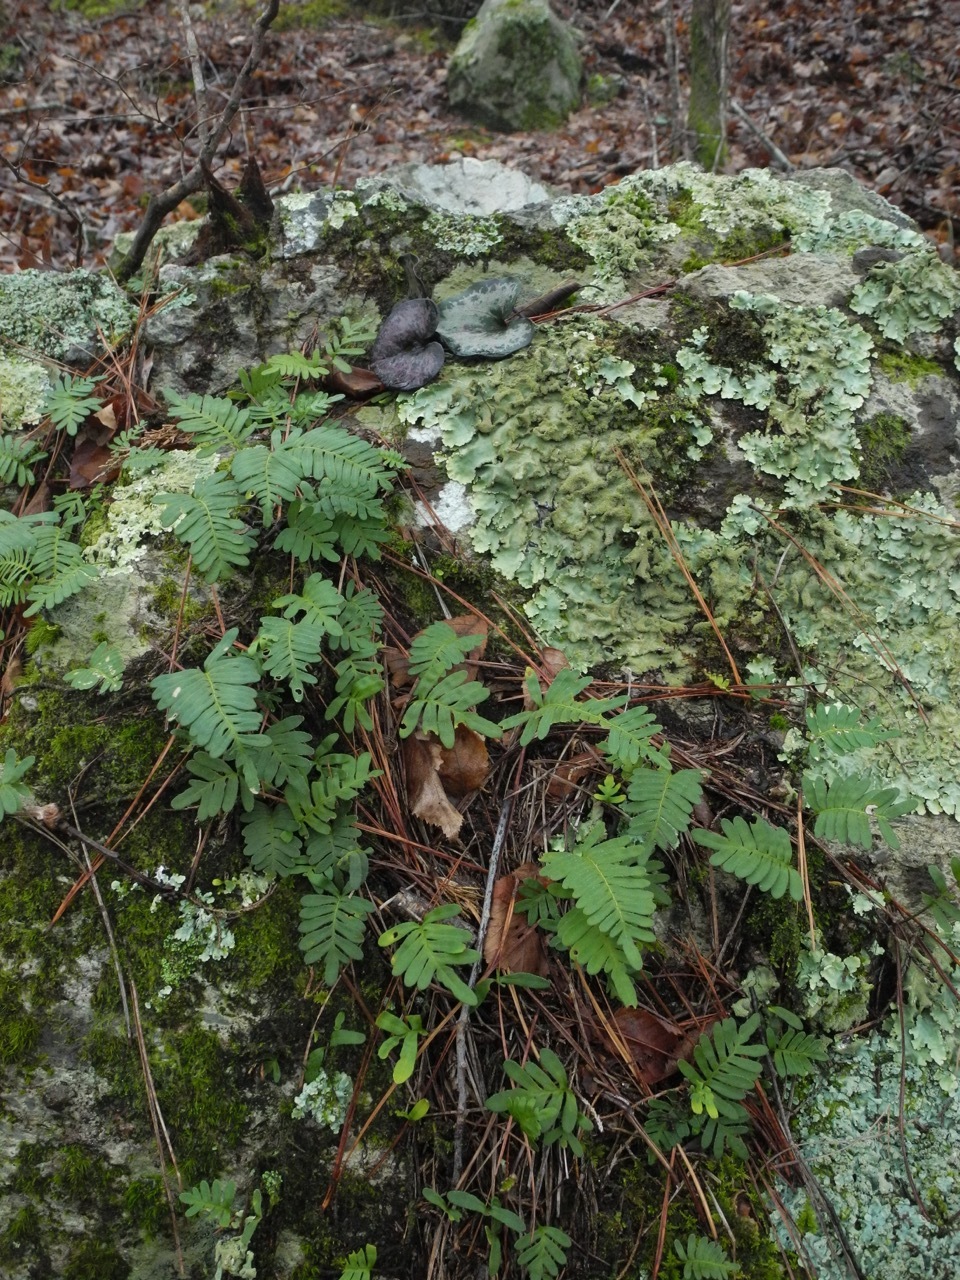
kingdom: Fungi
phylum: Ascomycota
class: Lecanoromycetes
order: Lecanorales
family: Parmeliaceae
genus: Parmotrema
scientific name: Parmotrema tinctorum
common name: Old gray ruffles
